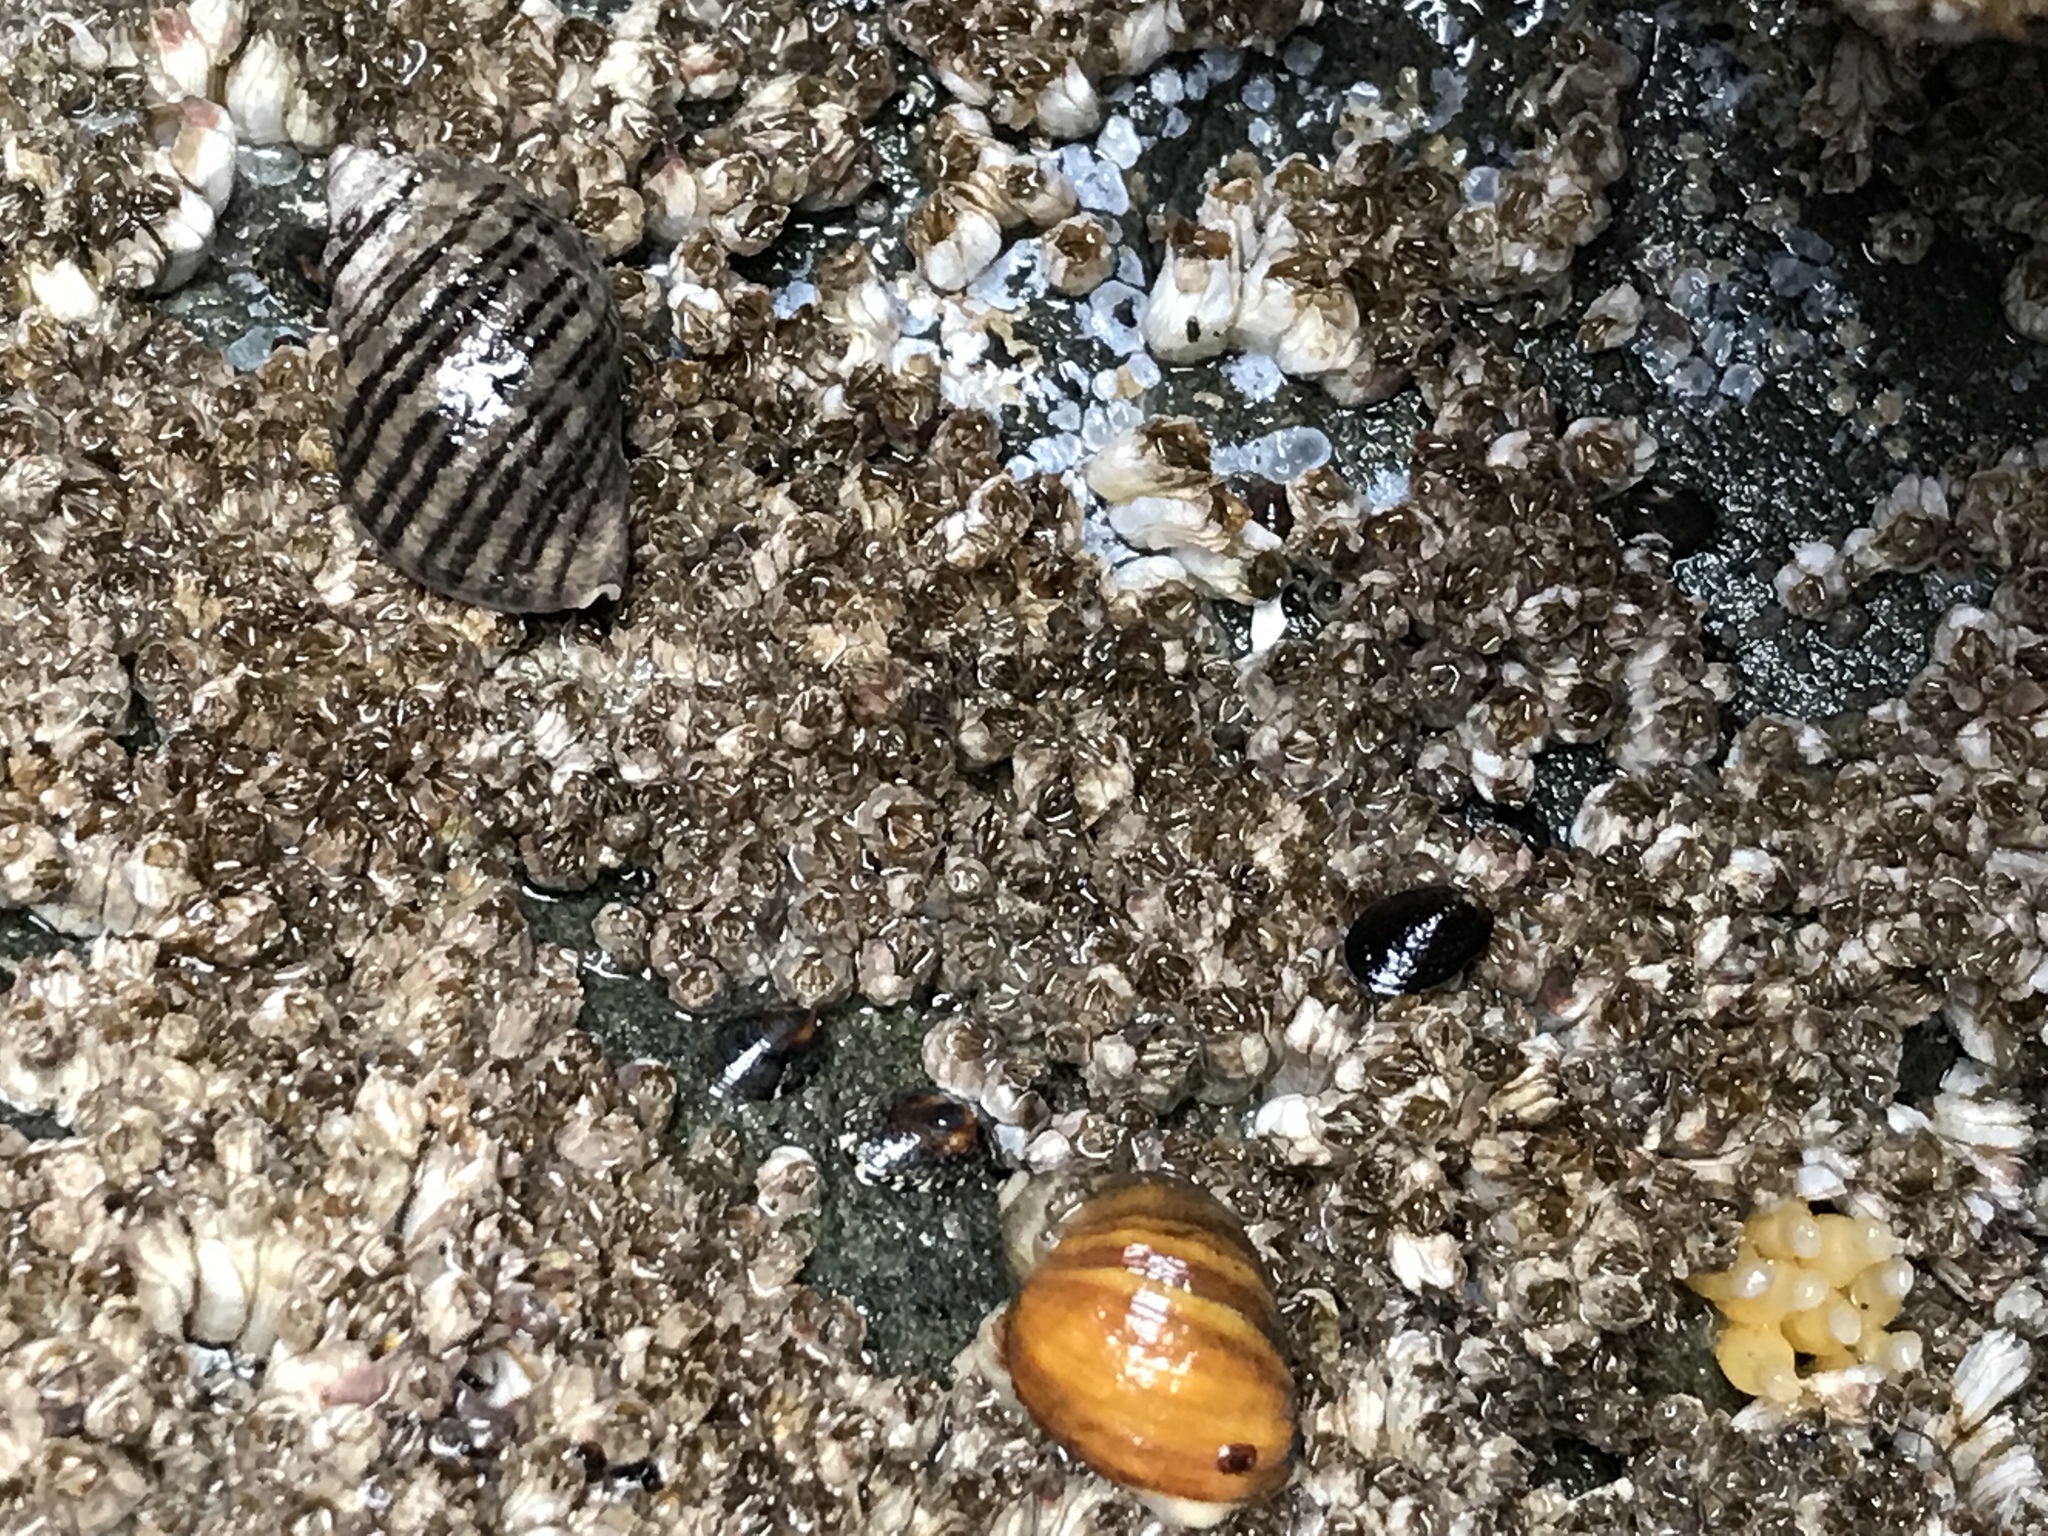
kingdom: Animalia
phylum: Mollusca
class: Gastropoda
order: Neogastropoda
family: Muricidae
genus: Nucella
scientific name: Nucella ostrina
